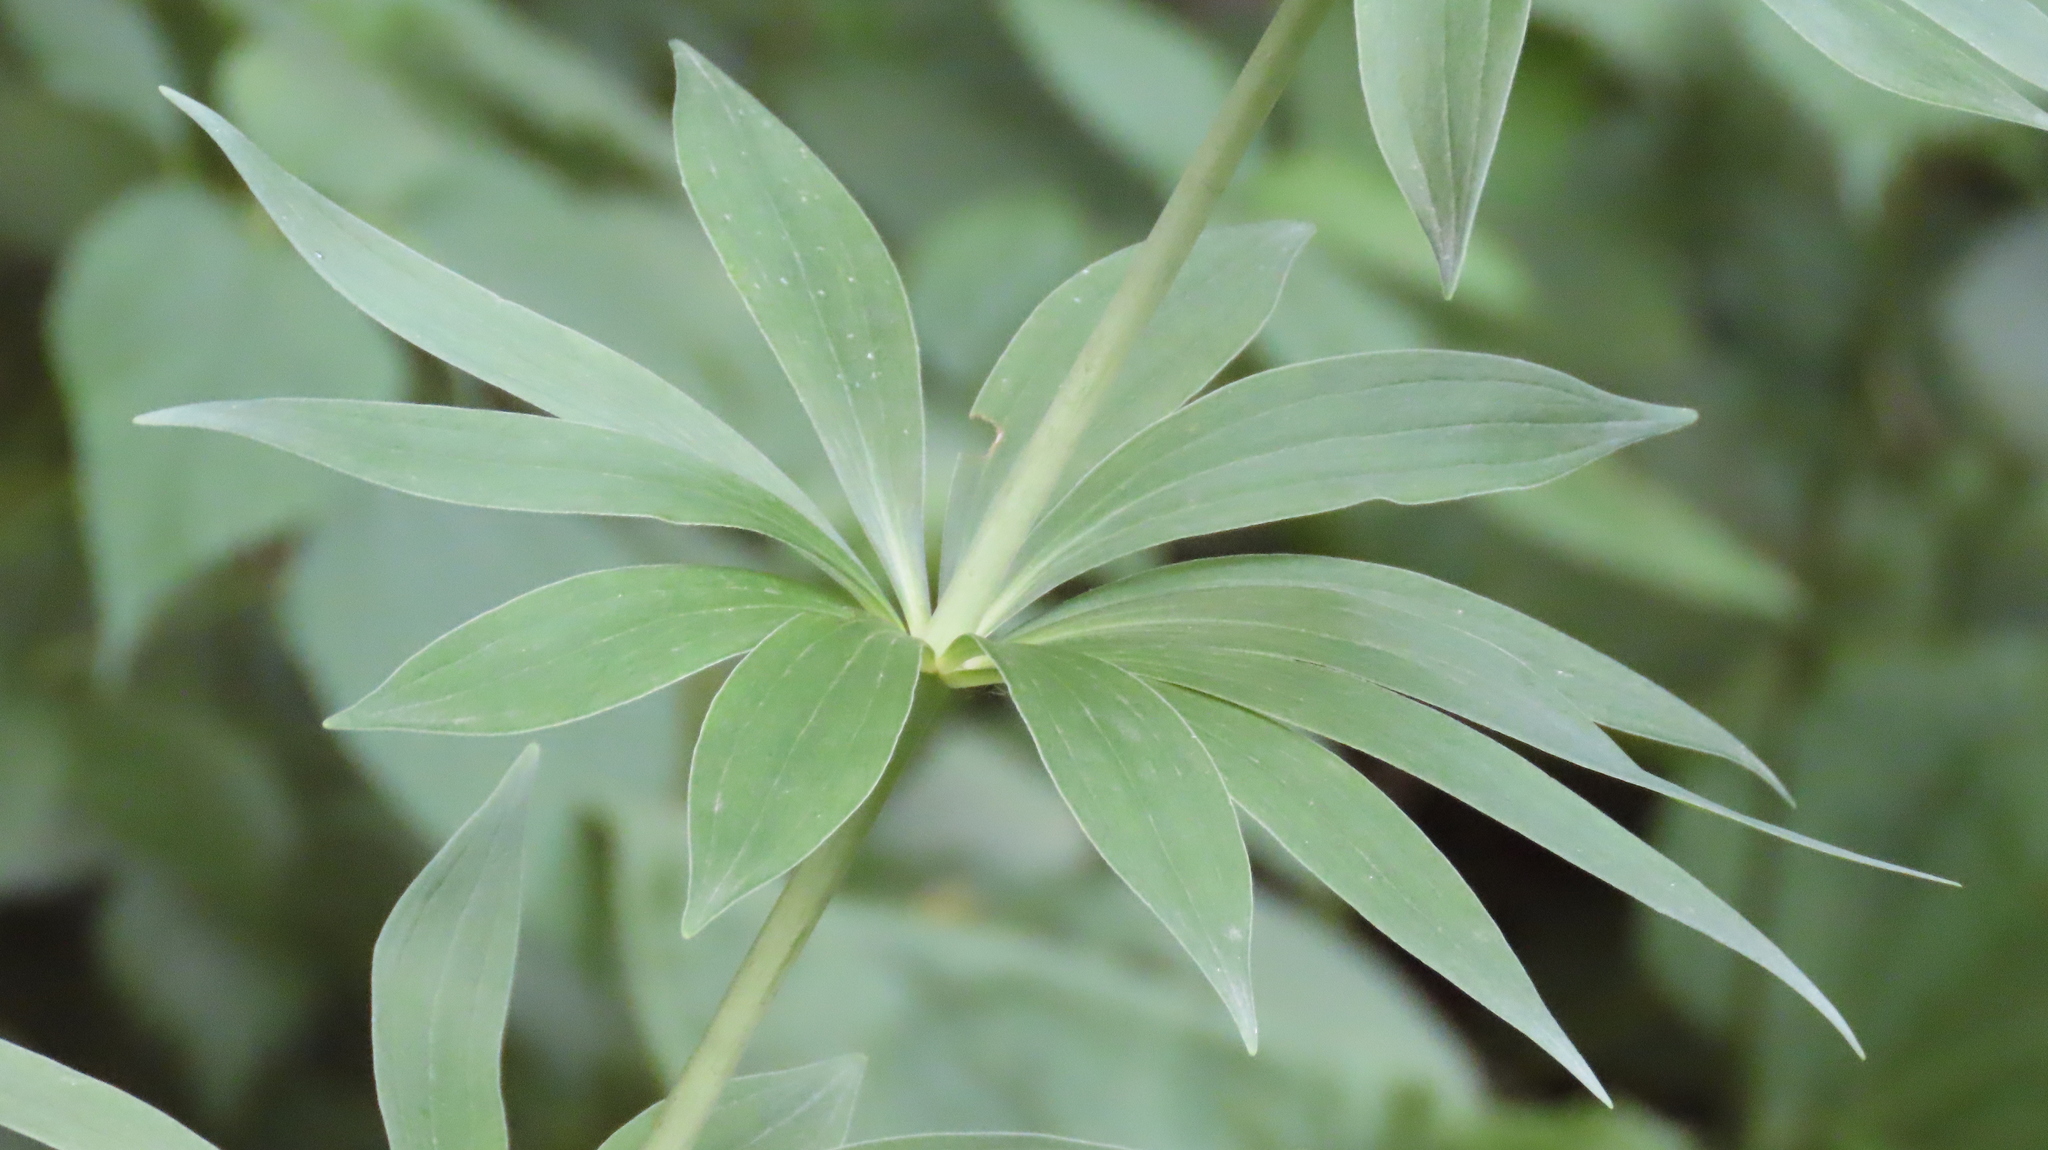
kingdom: Plantae
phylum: Tracheophyta
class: Liliopsida
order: Liliales
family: Liliaceae
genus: Lilium
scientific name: Lilium michiganense
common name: Michigan lily
